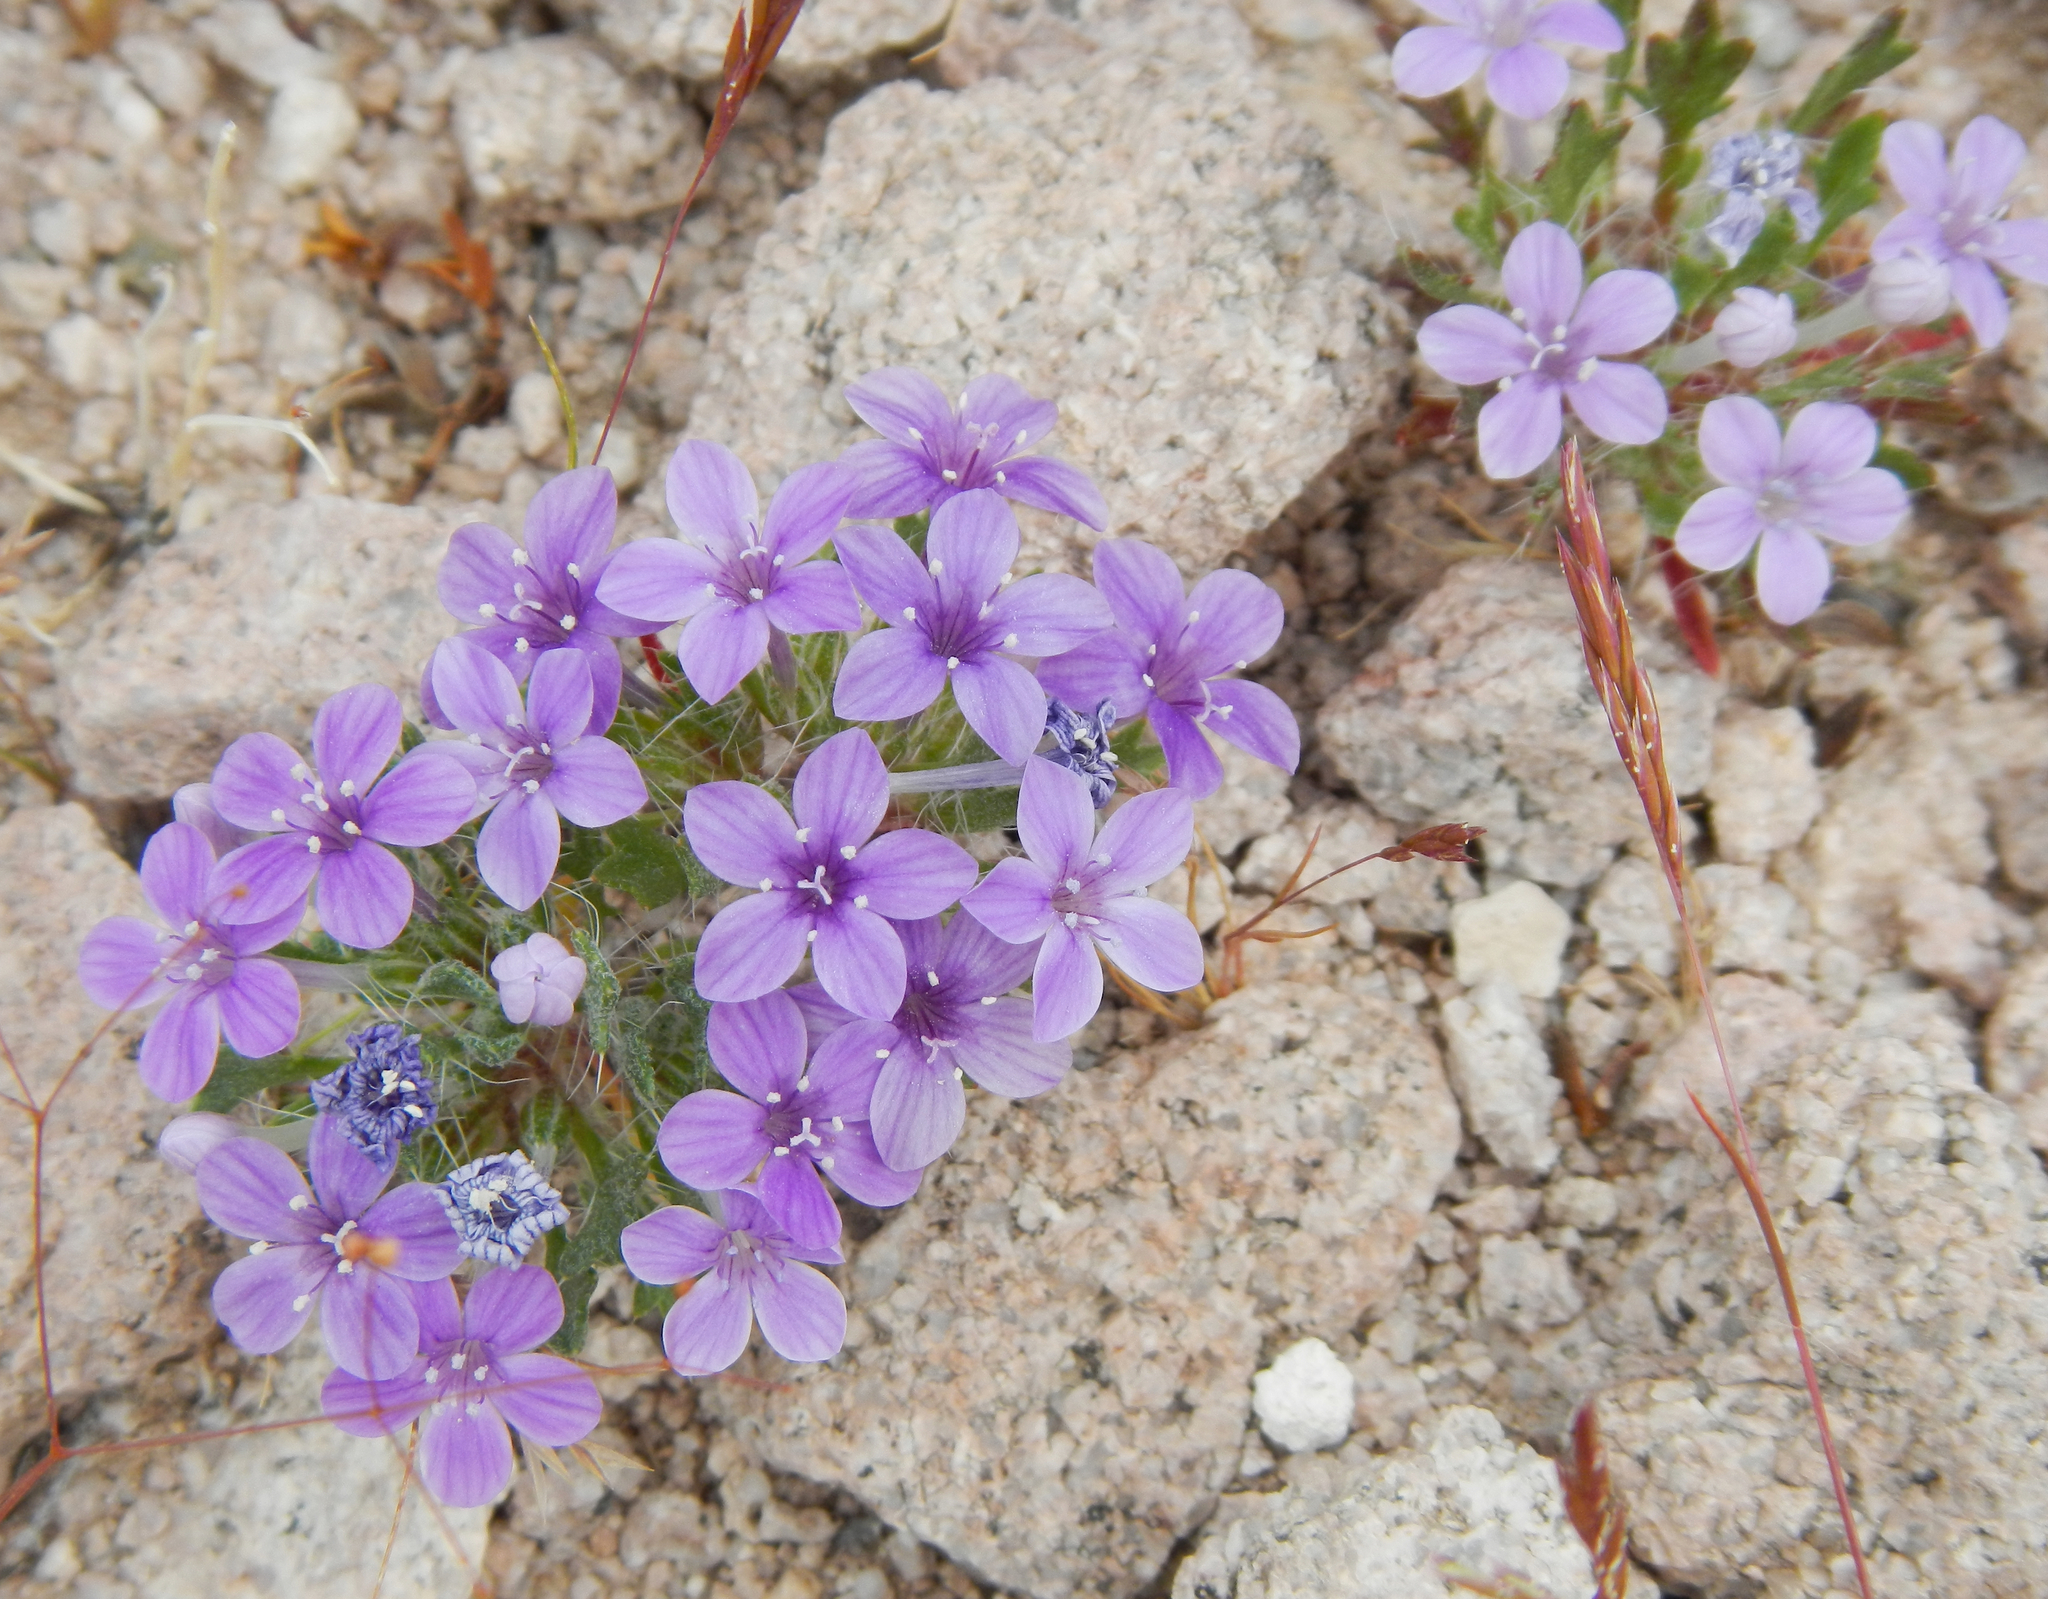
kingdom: Plantae
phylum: Tracheophyta
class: Magnoliopsida
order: Ericales
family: Polemoniaceae
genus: Langloisia
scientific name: Langloisia setosissima
